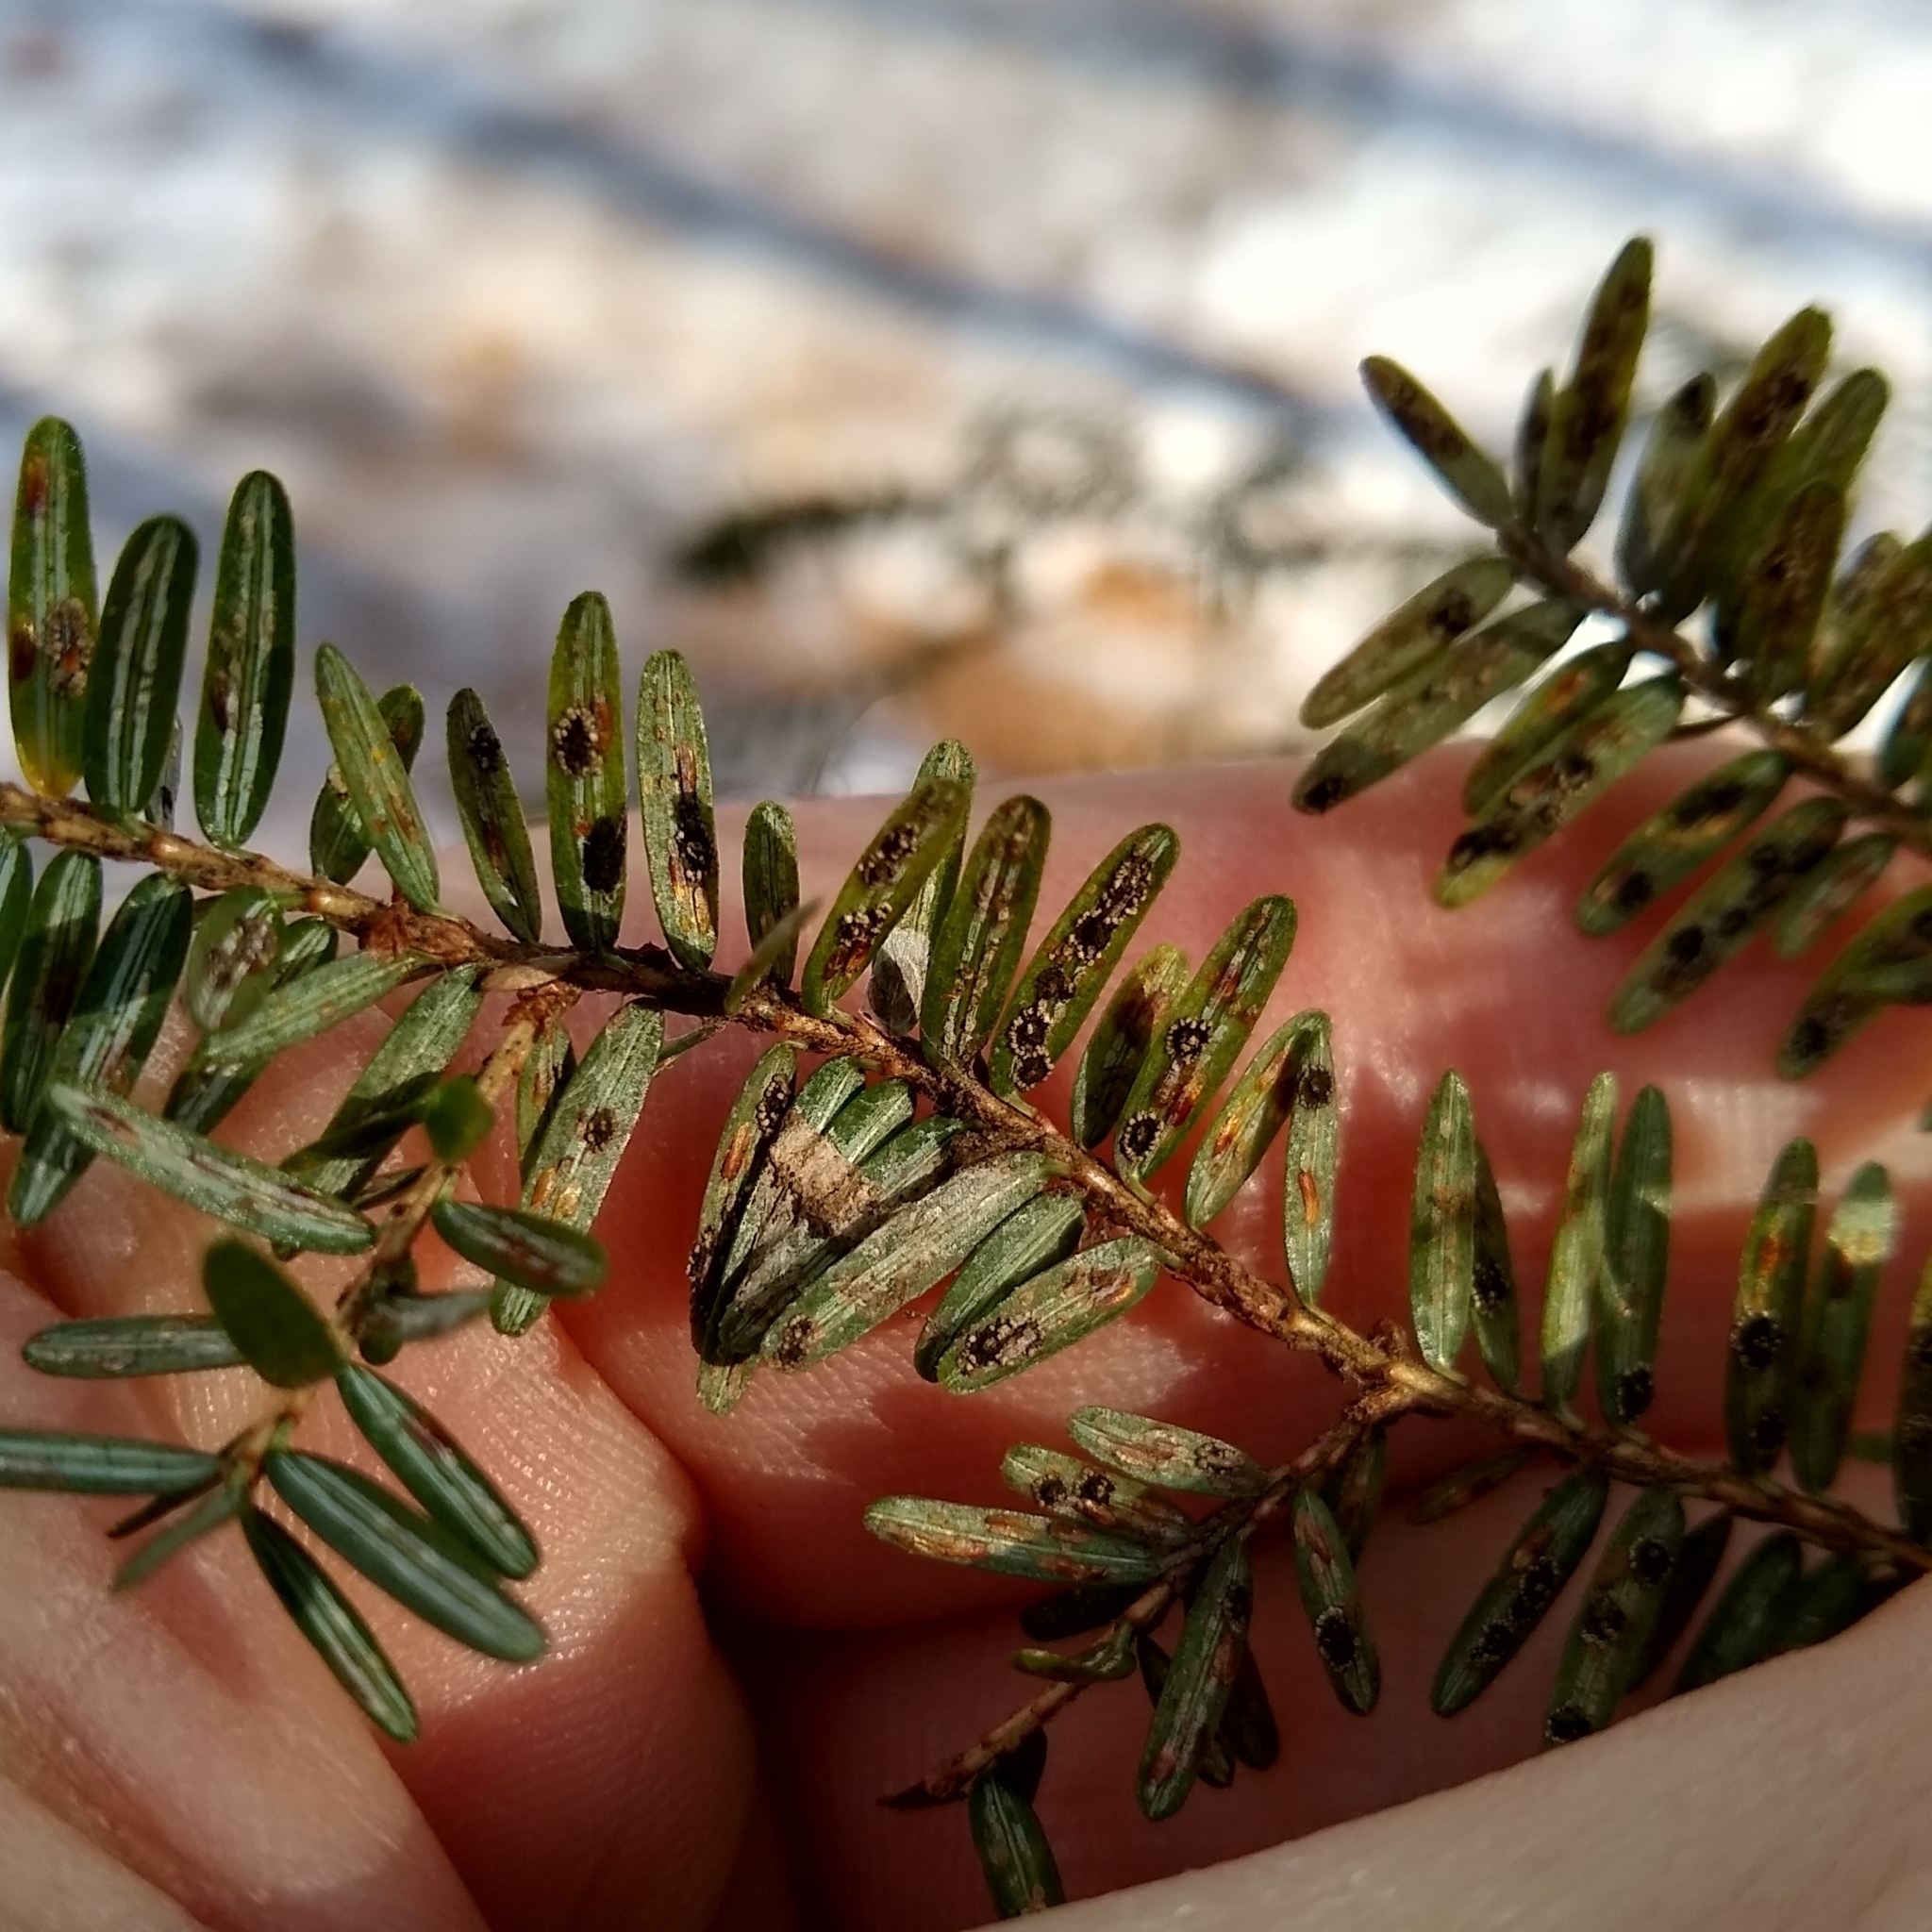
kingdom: Animalia
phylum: Arthropoda
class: Insecta
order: Hemiptera
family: Diaspididae
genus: Fiorinia
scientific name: Fiorinia externa
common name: Elongate hemlock scale
